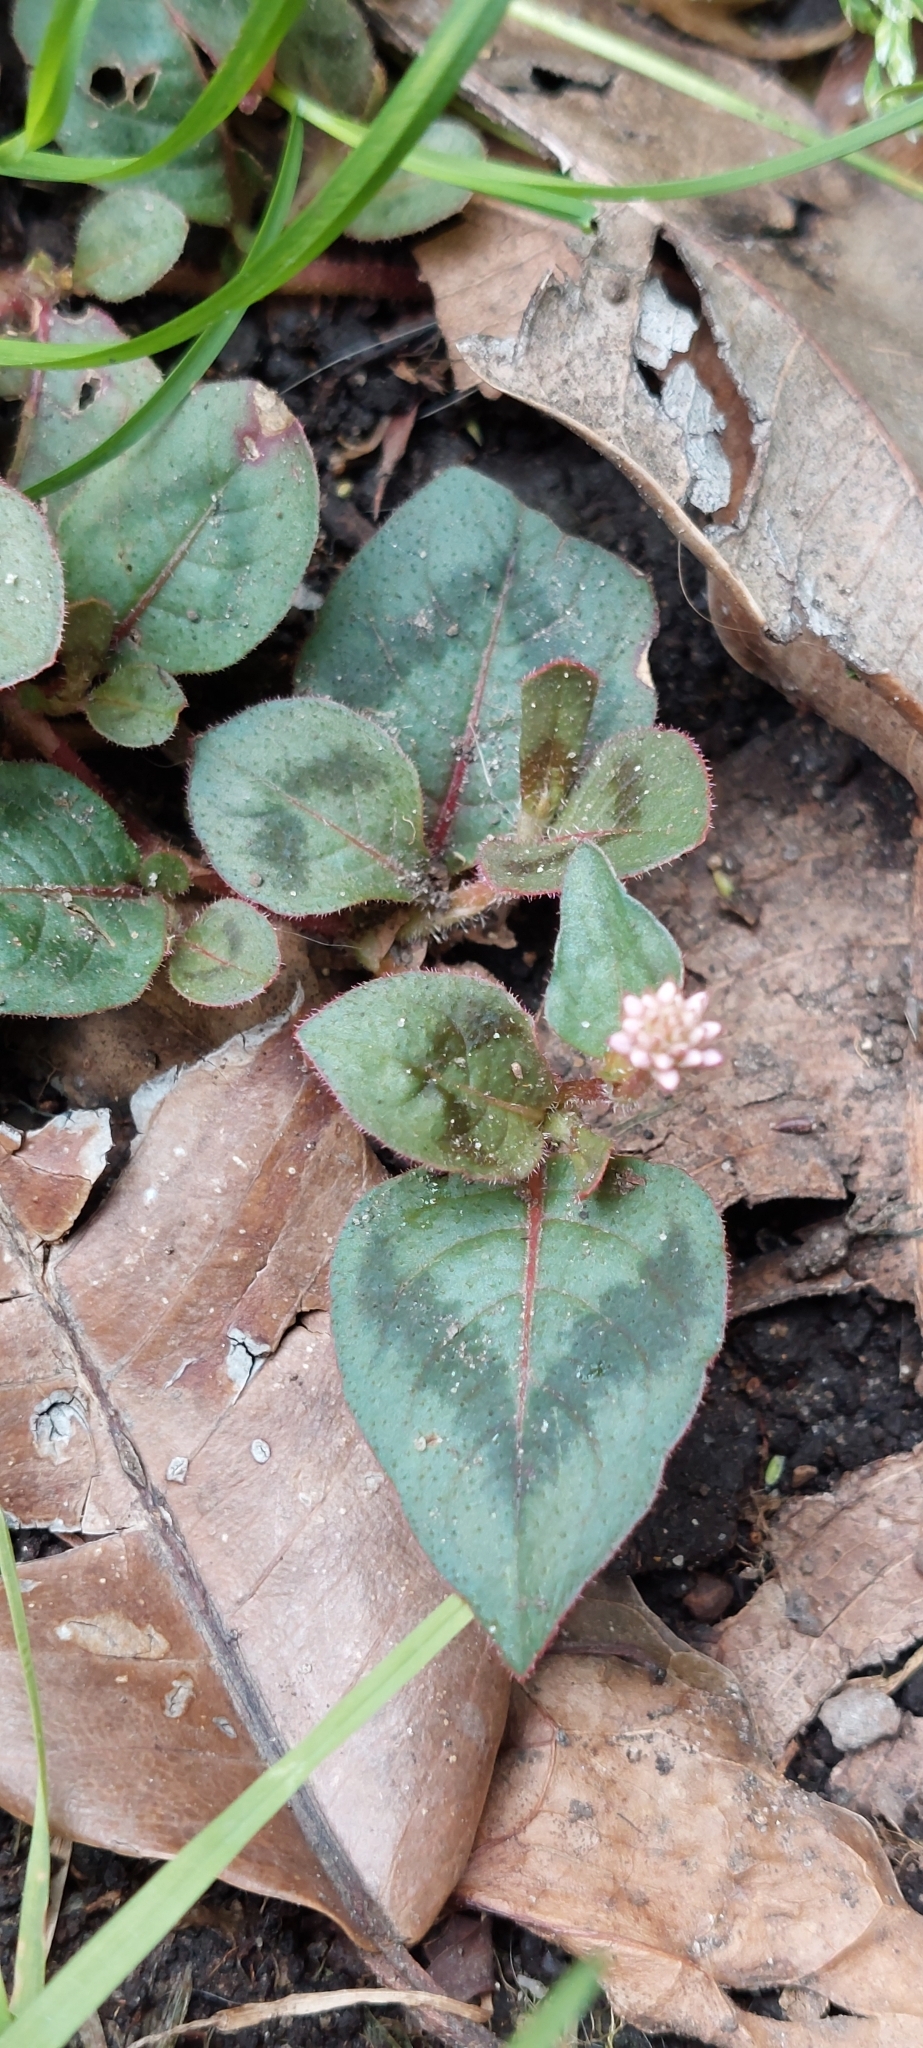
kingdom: Plantae
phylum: Tracheophyta
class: Magnoliopsida
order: Caryophyllales
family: Polygonaceae
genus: Persicaria
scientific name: Persicaria capitata
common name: Pinkhead smartweed
